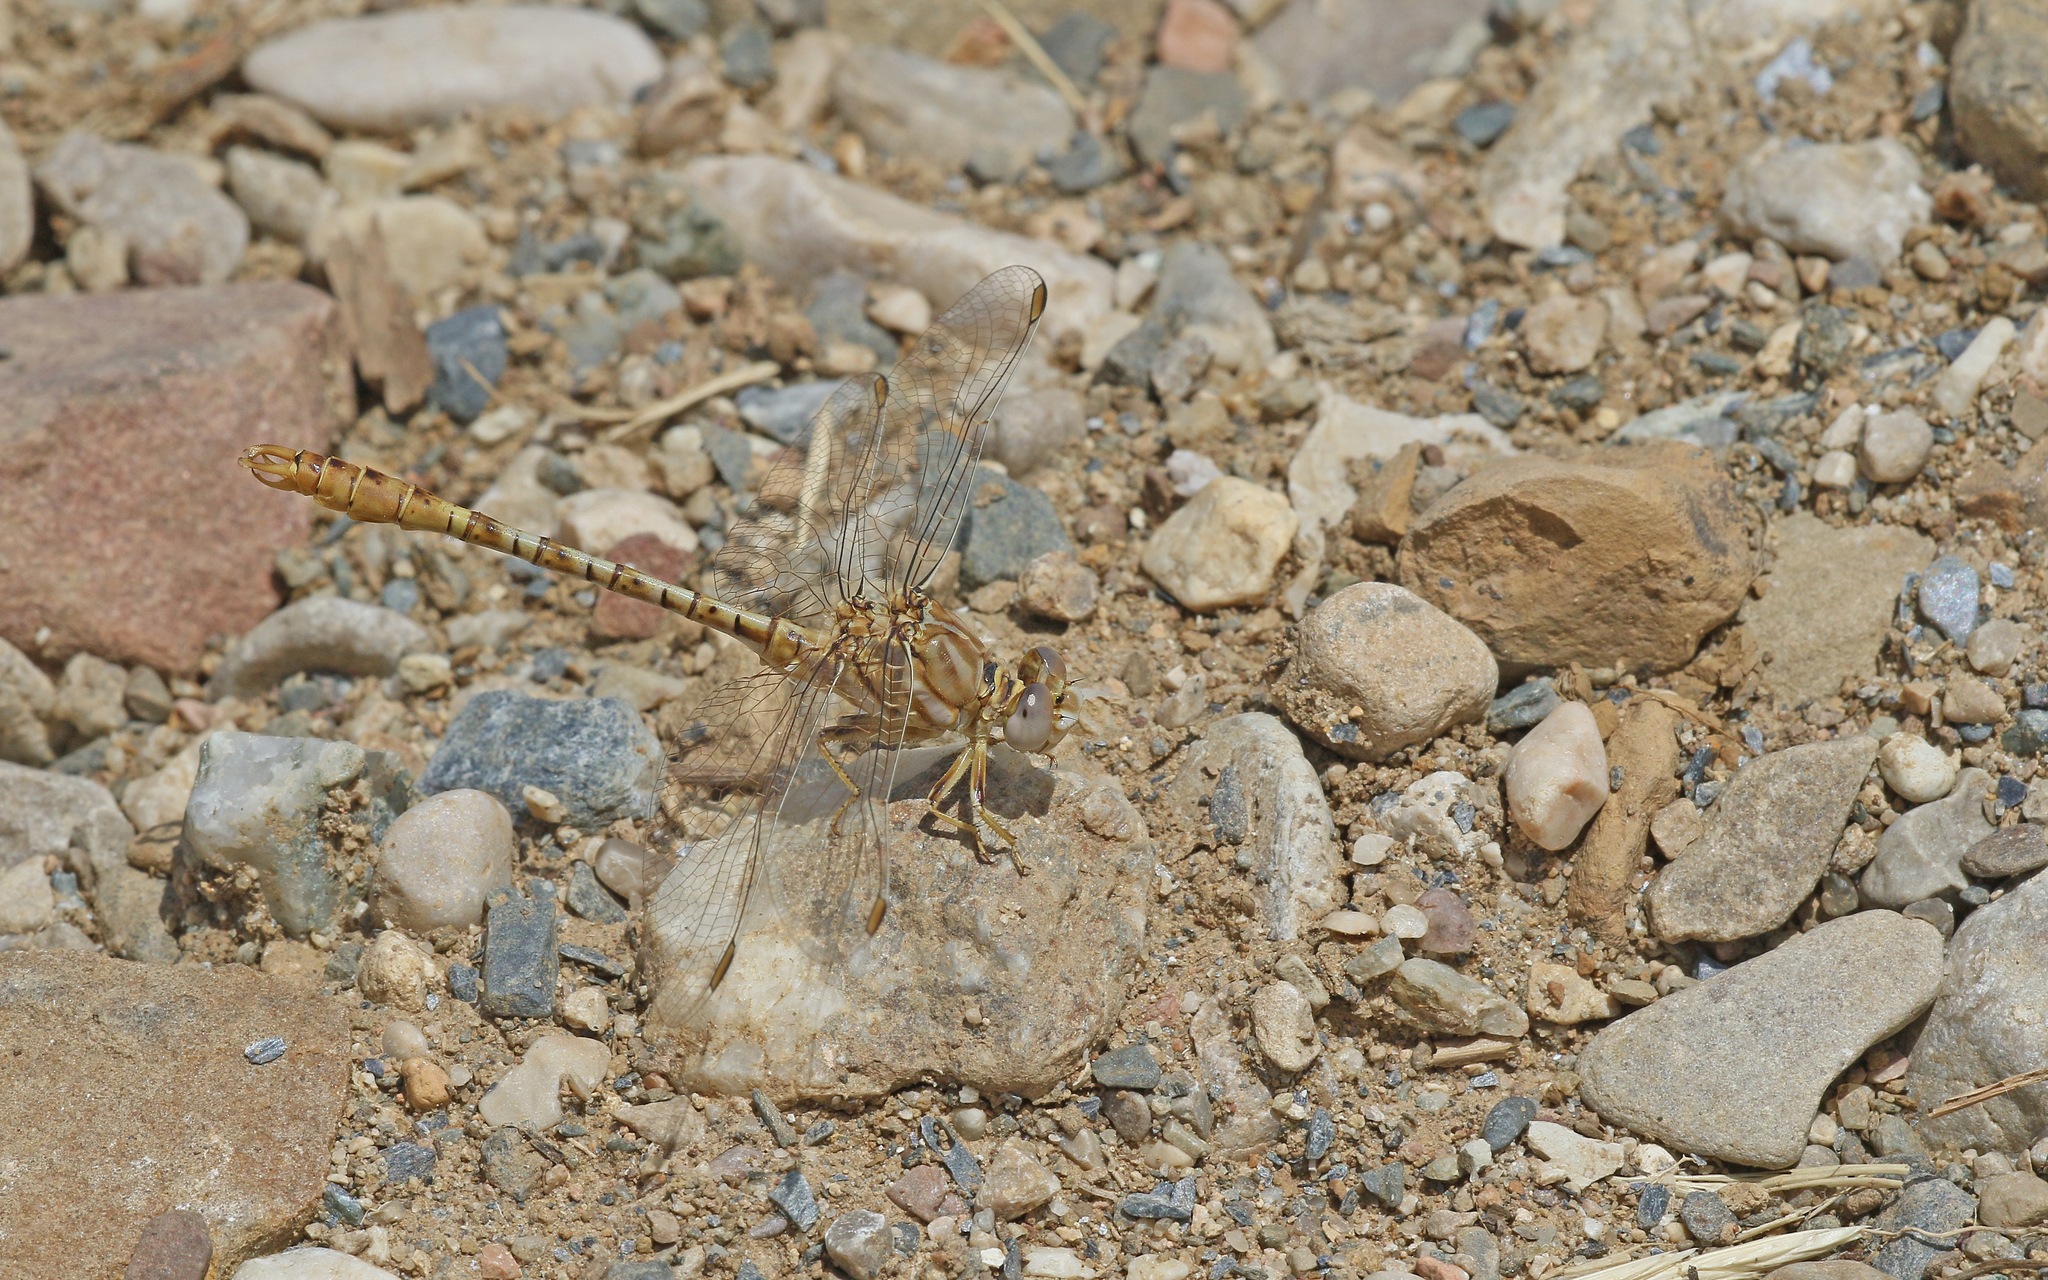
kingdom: Animalia
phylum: Arthropoda
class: Insecta
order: Odonata
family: Gomphidae
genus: Onychogomphus
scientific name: Onychogomphus costae
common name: Faded pincertail
